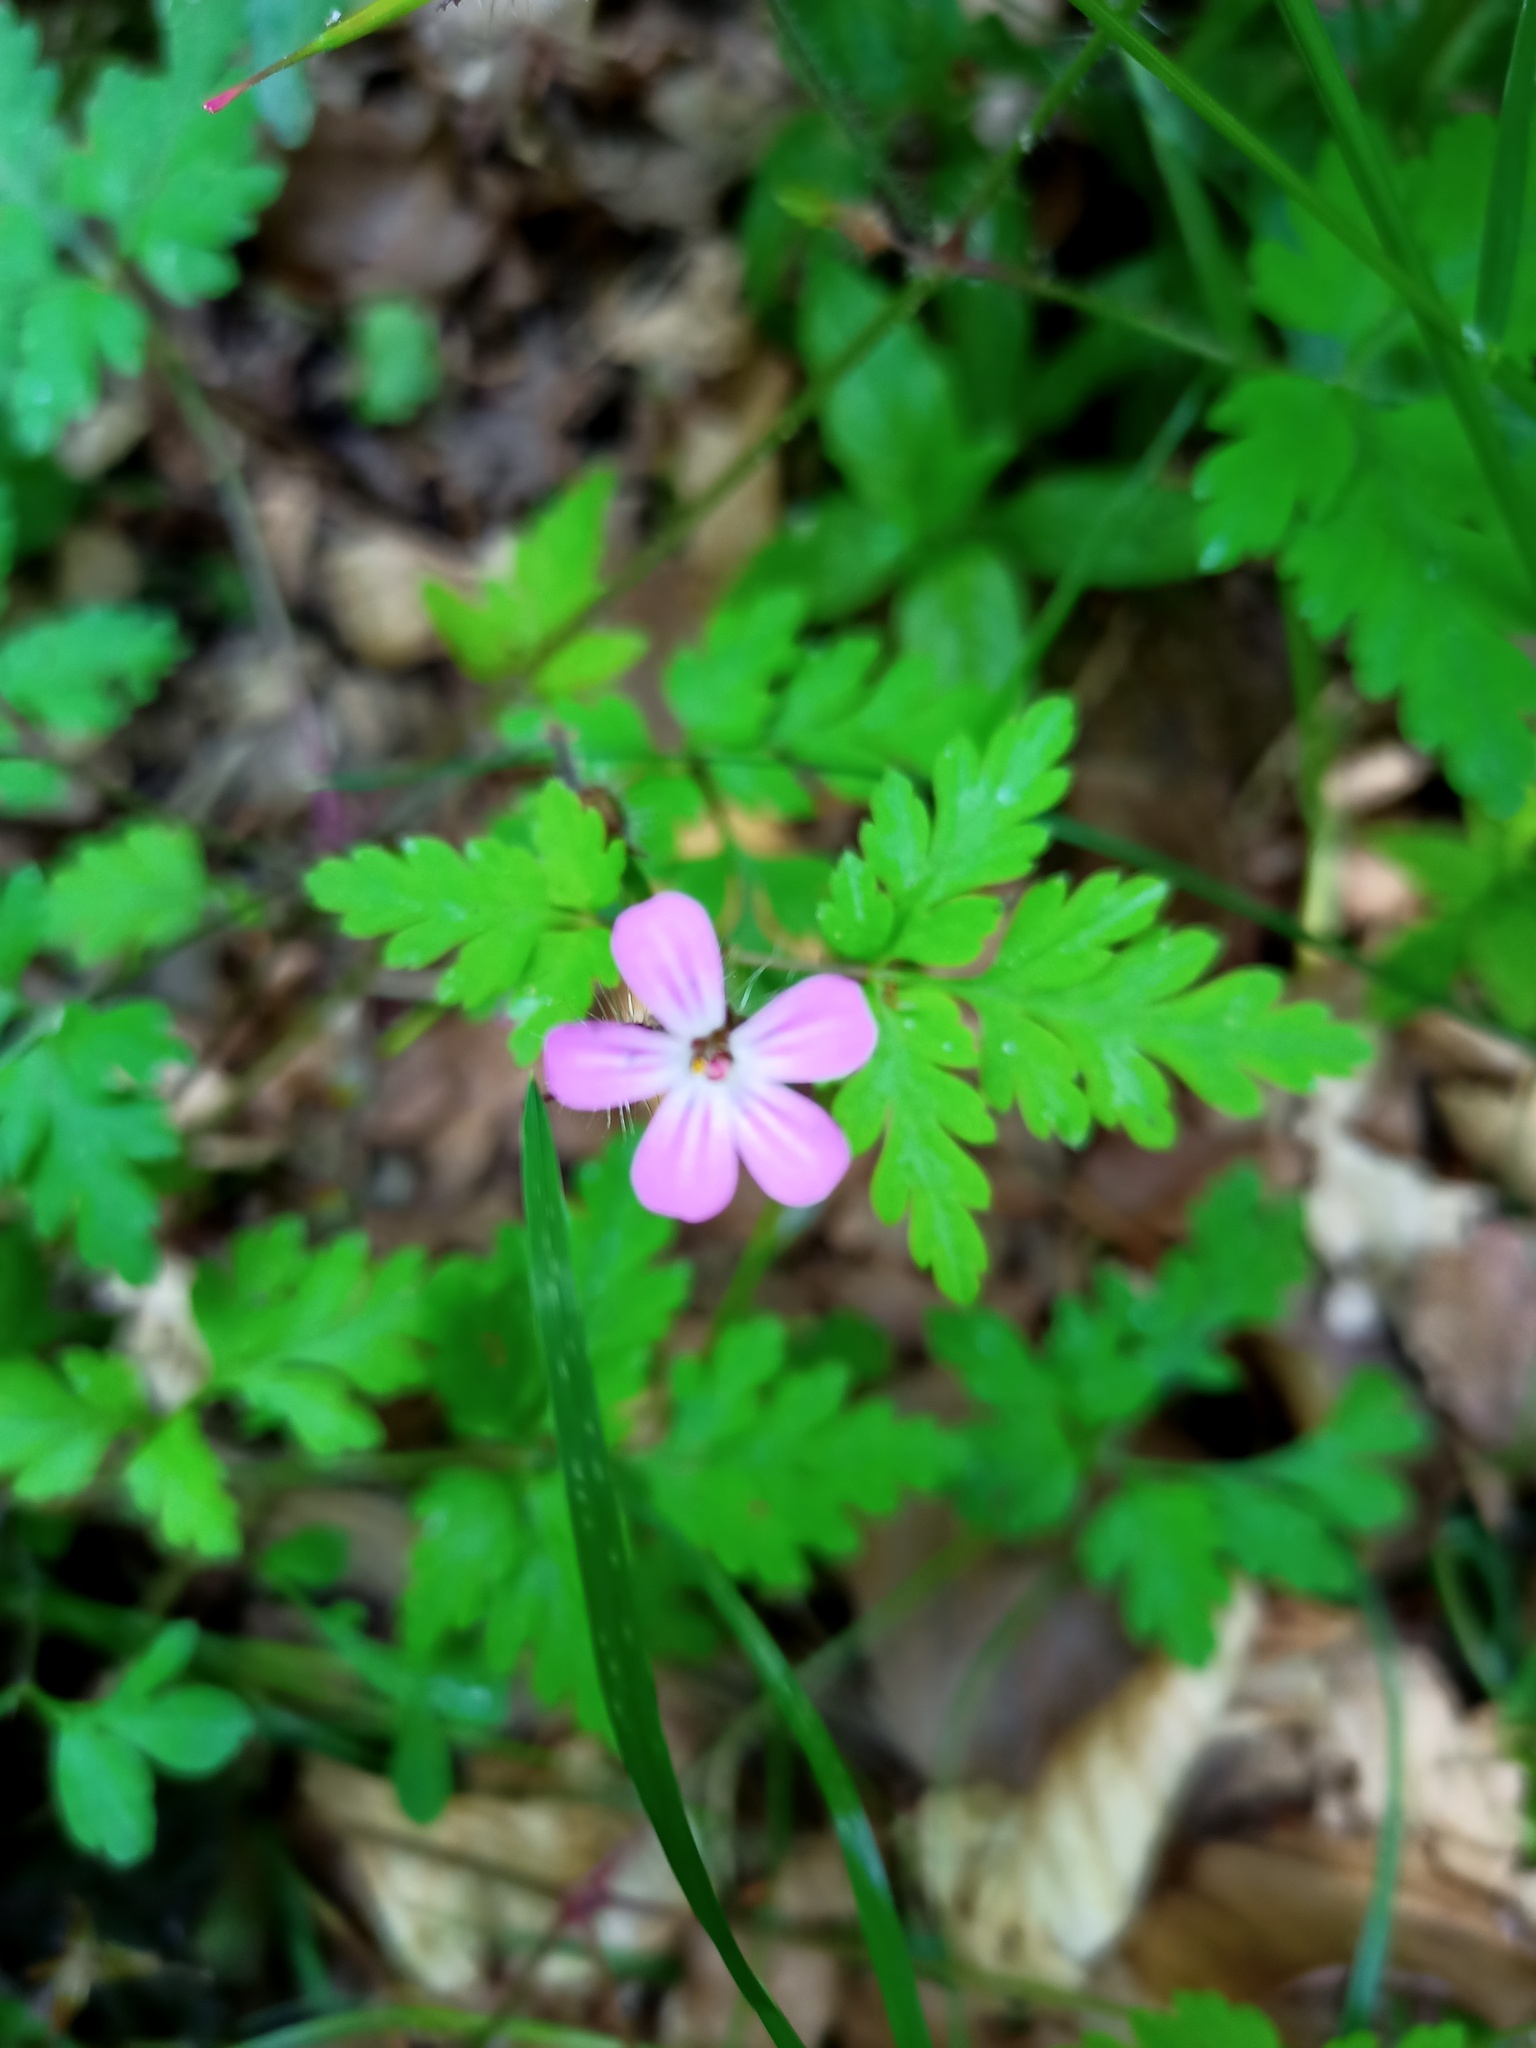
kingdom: Plantae
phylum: Tracheophyta
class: Magnoliopsida
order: Geraniales
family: Geraniaceae
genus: Geranium
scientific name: Geranium robertianum
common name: Herb-robert
